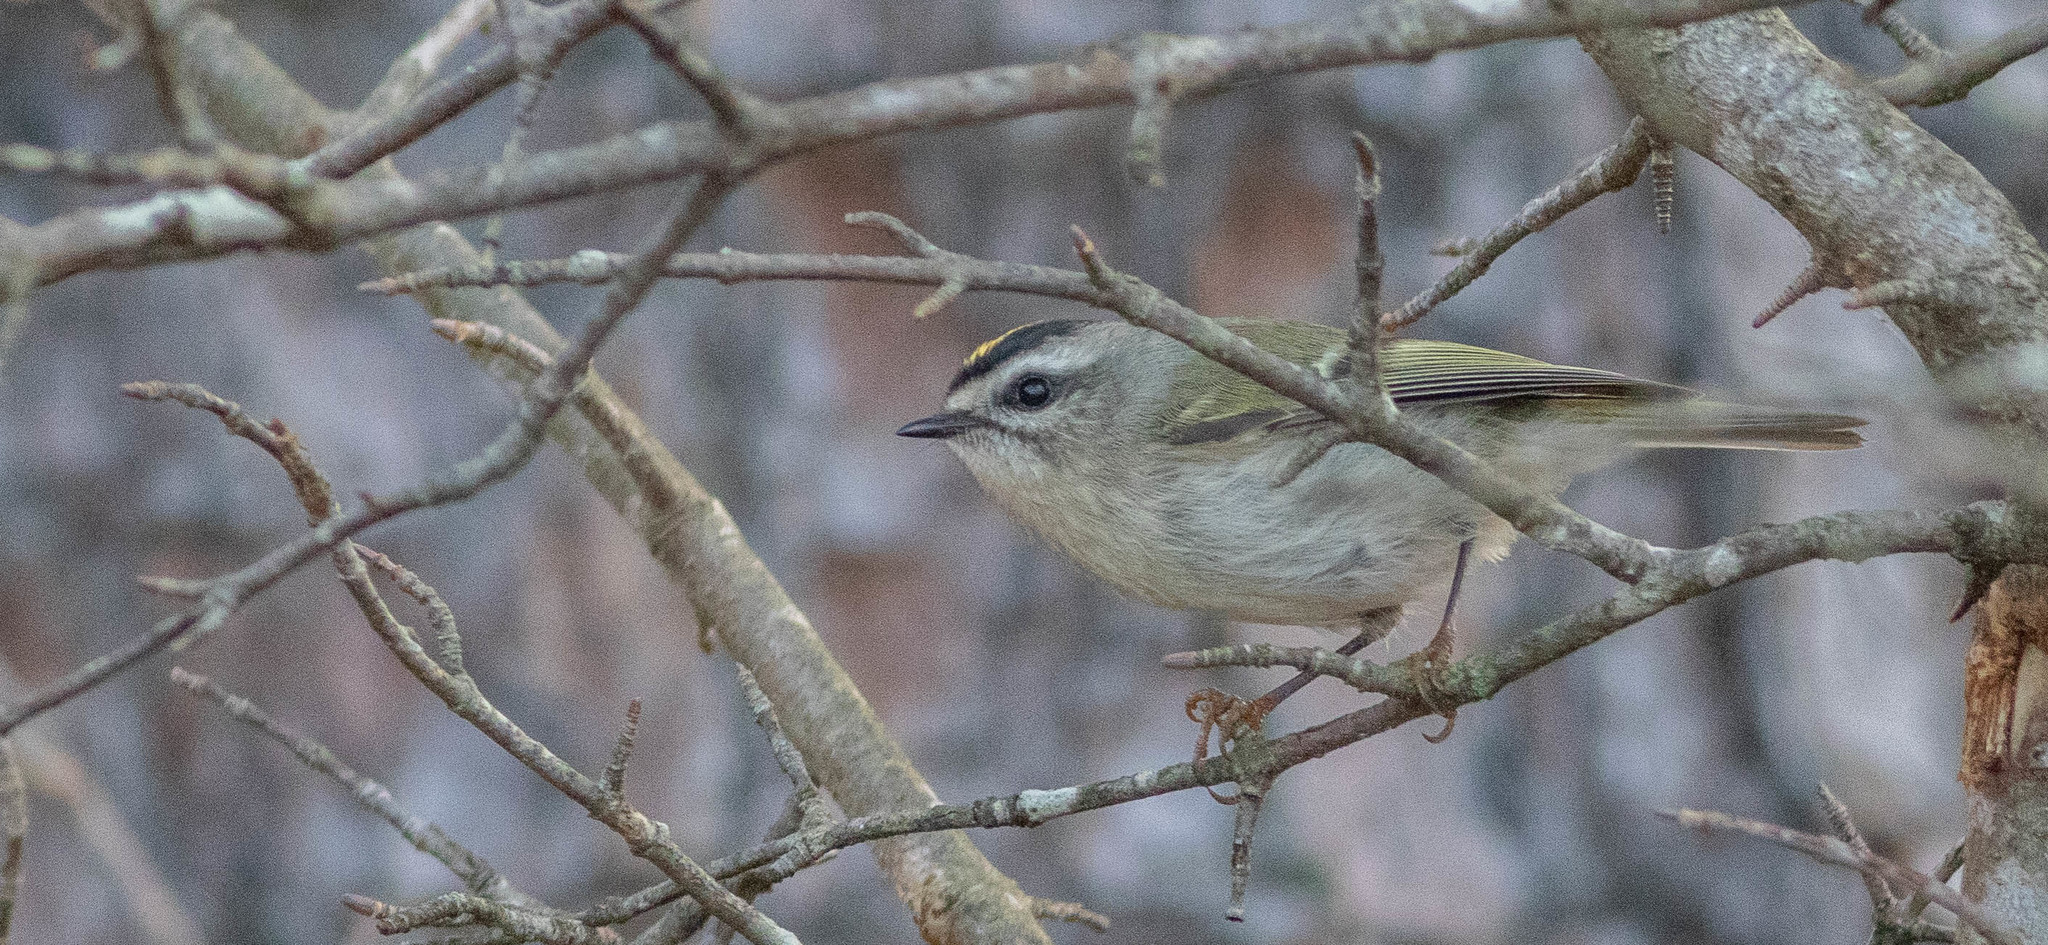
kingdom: Animalia
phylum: Chordata
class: Aves
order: Passeriformes
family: Regulidae
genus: Regulus
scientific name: Regulus satrapa
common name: Golden-crowned kinglet
